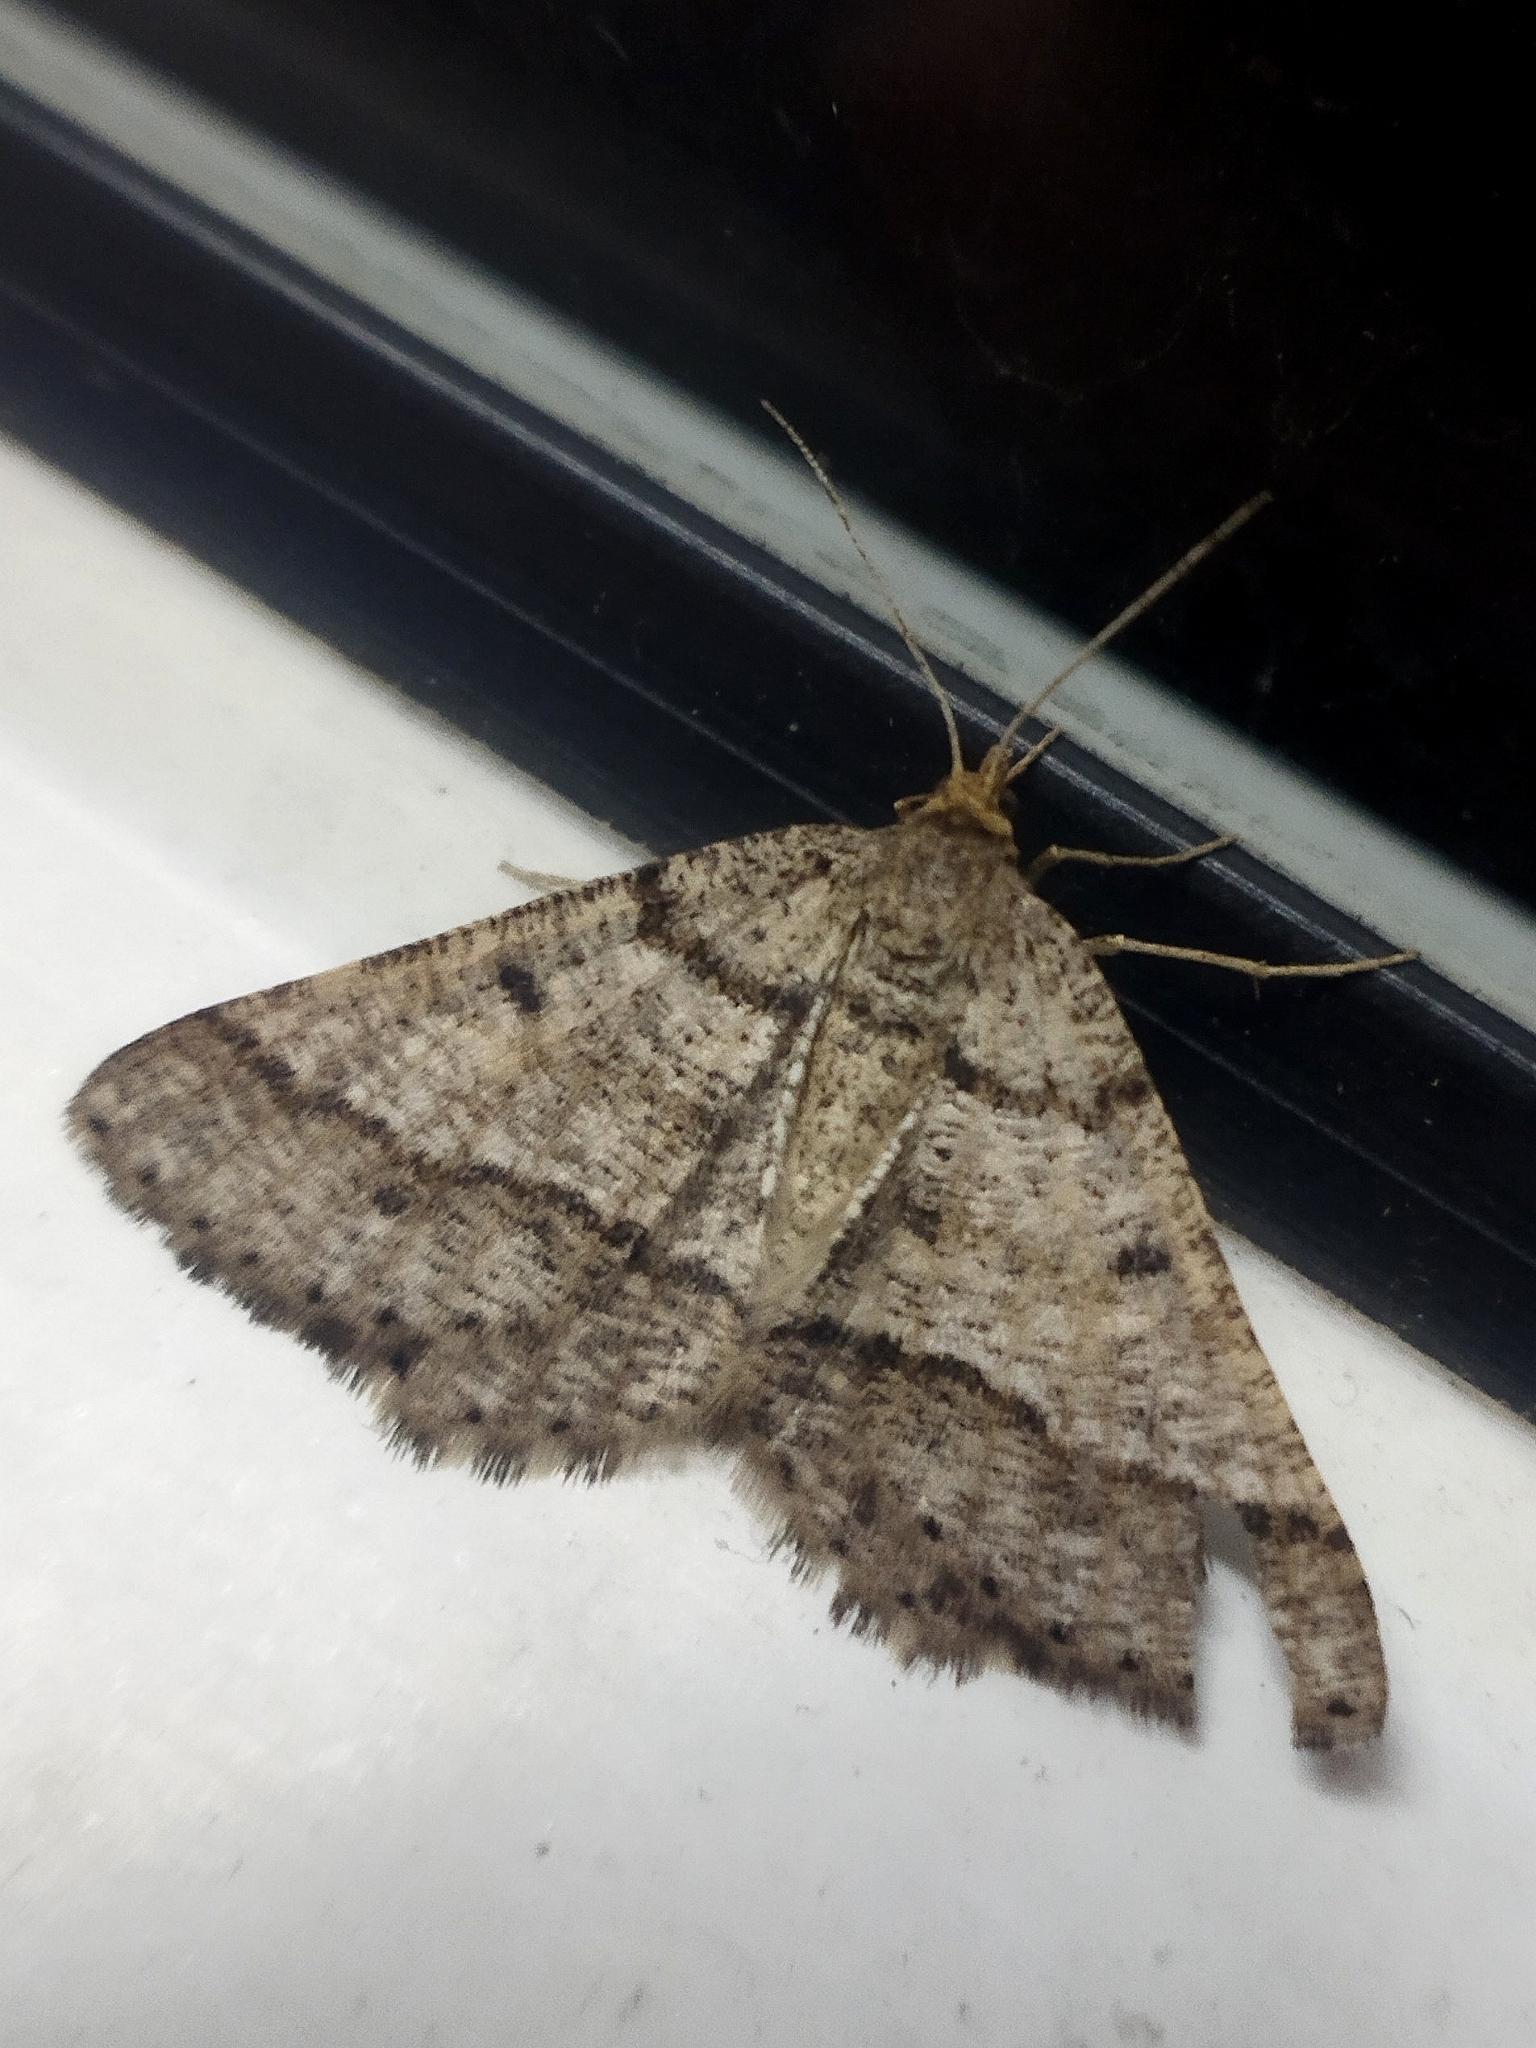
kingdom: Animalia
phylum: Arthropoda
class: Insecta
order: Lepidoptera
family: Geometridae
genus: Tephrina
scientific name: Tephrina murinaria
